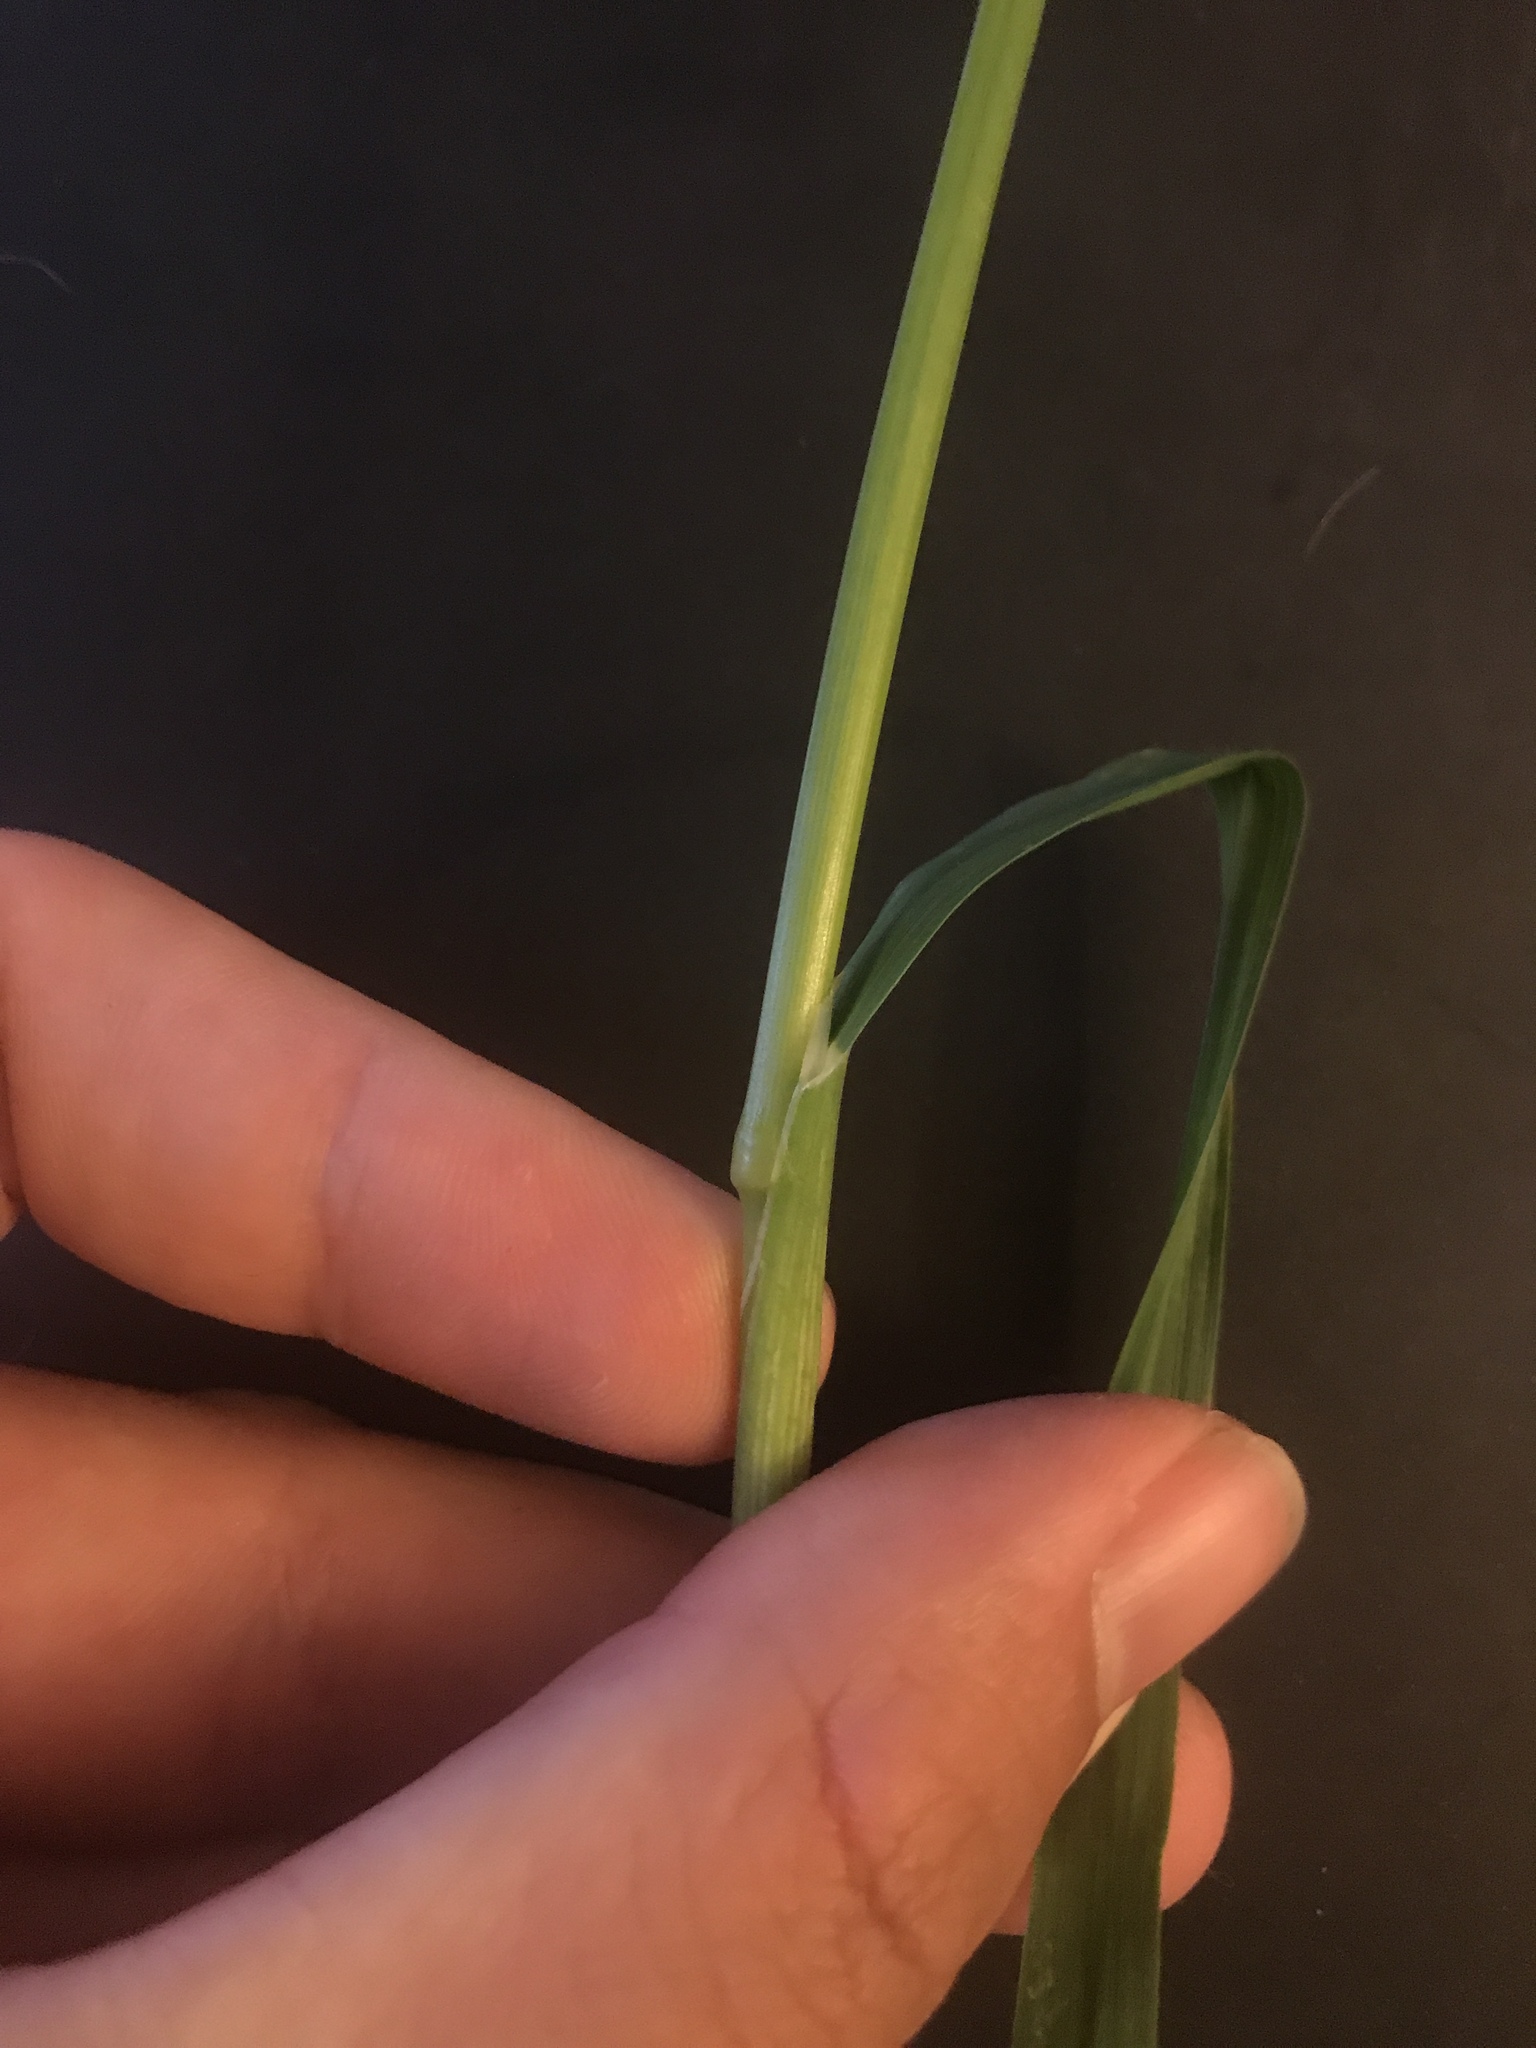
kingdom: Plantae
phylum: Tracheophyta
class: Liliopsida
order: Poales
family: Poaceae
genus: Bromus
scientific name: Bromus catharticus
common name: Rescuegrass
